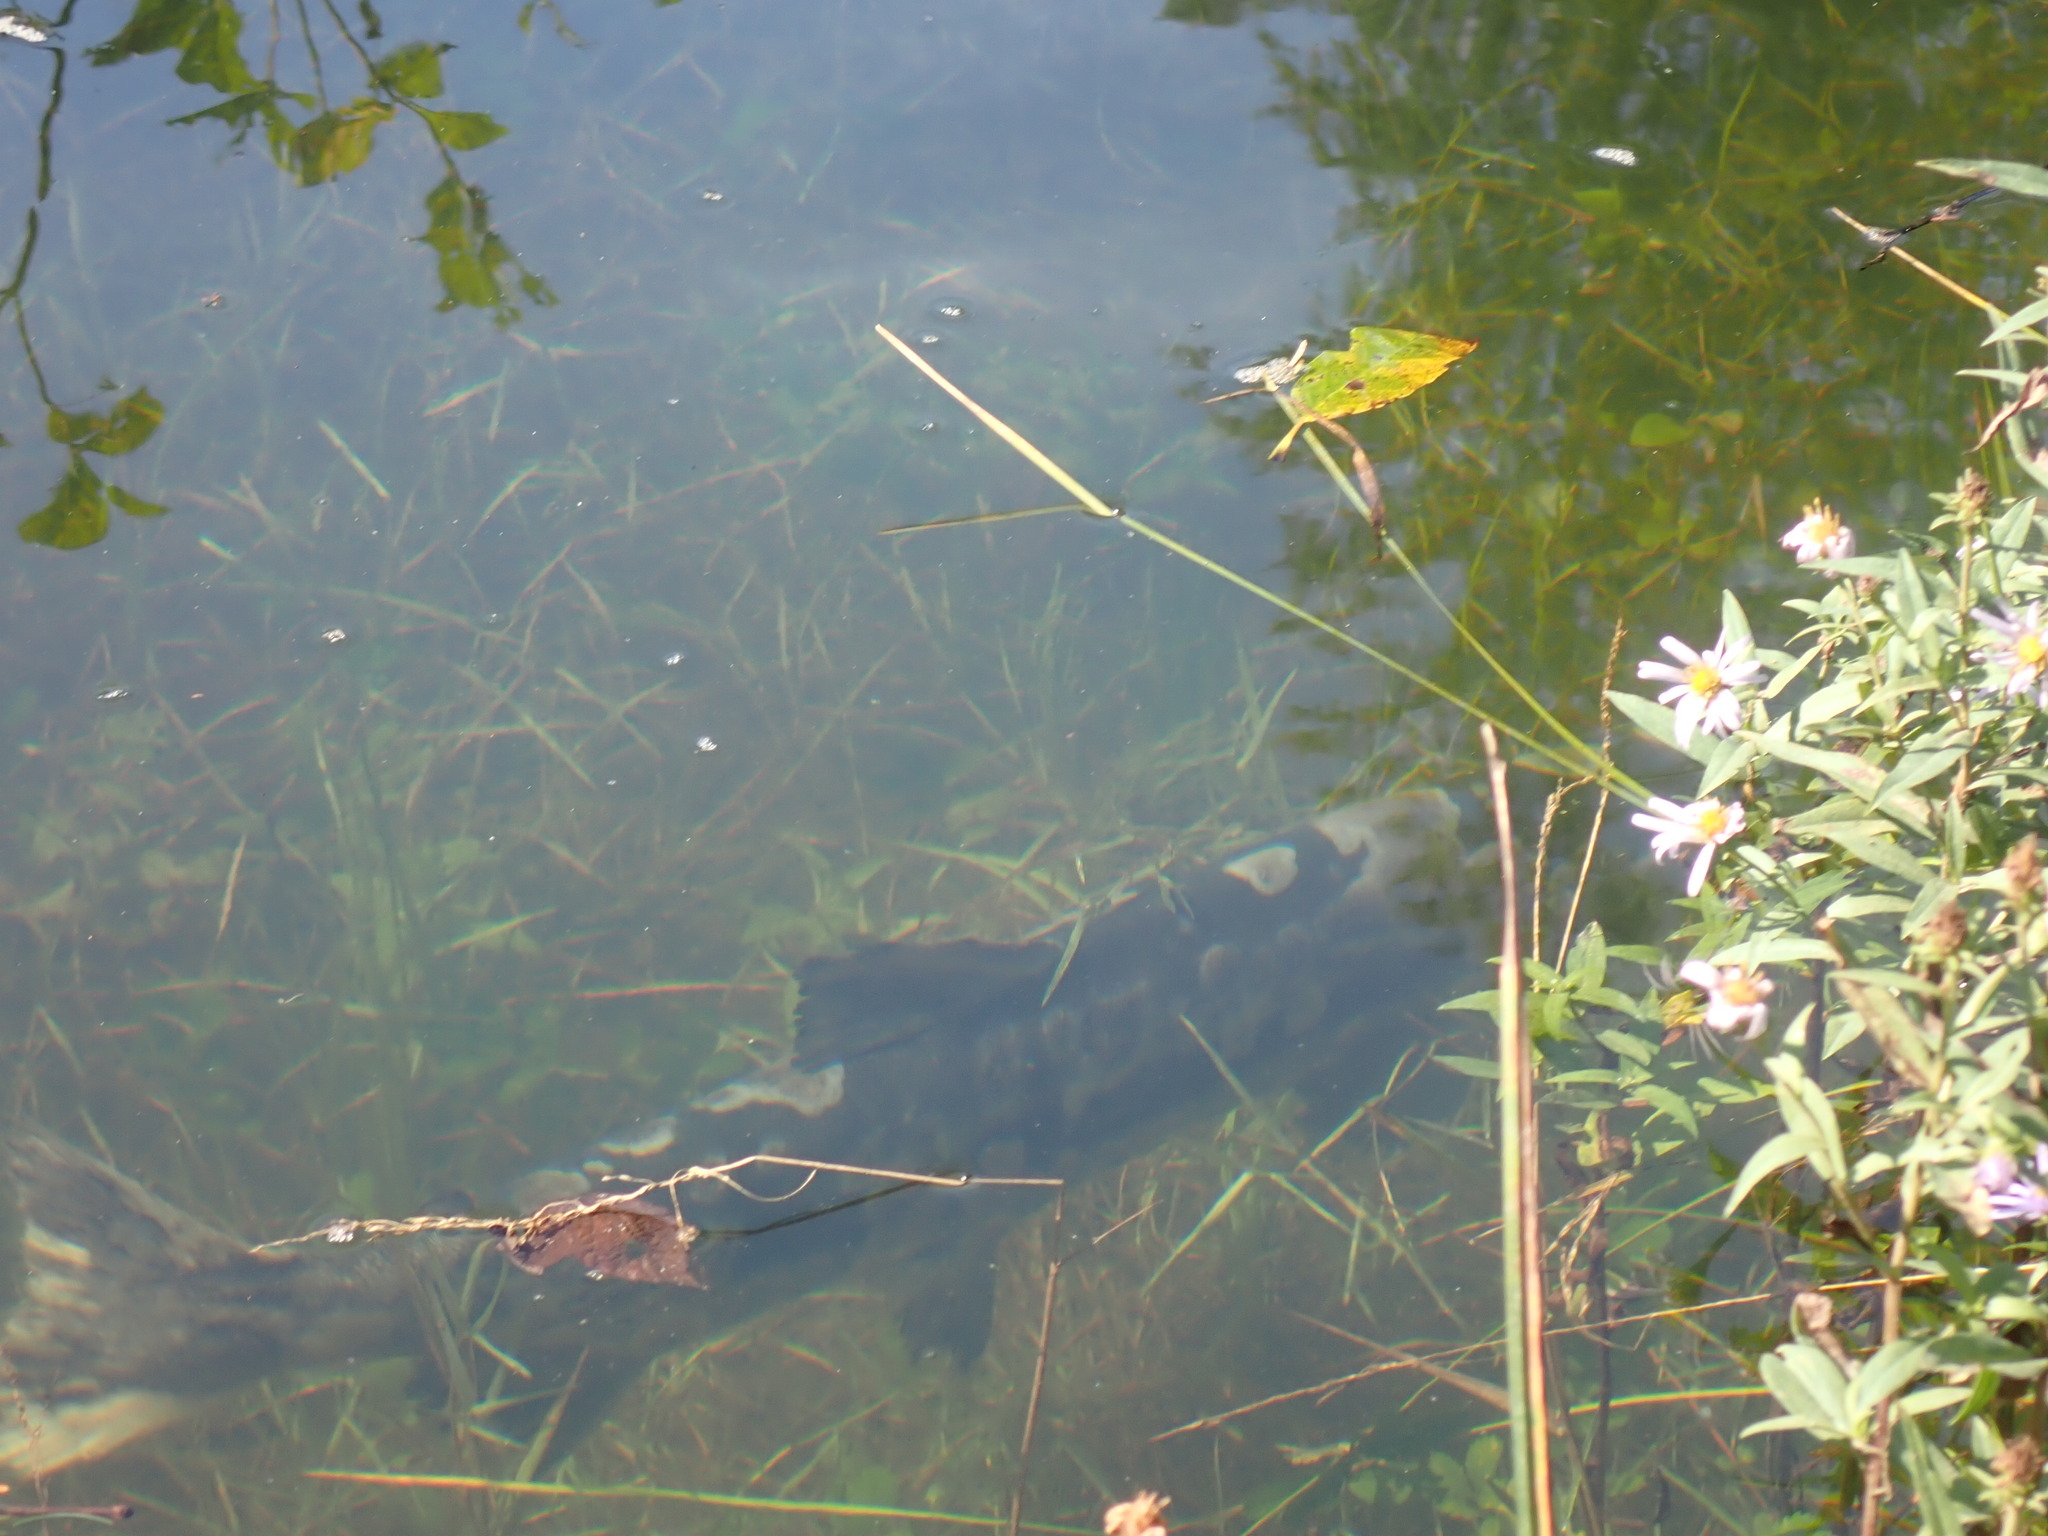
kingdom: Animalia
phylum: Chordata
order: Salmoniformes
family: Salmonidae
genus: Oncorhynchus
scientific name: Oncorhynchus keta
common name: Chum salmon
